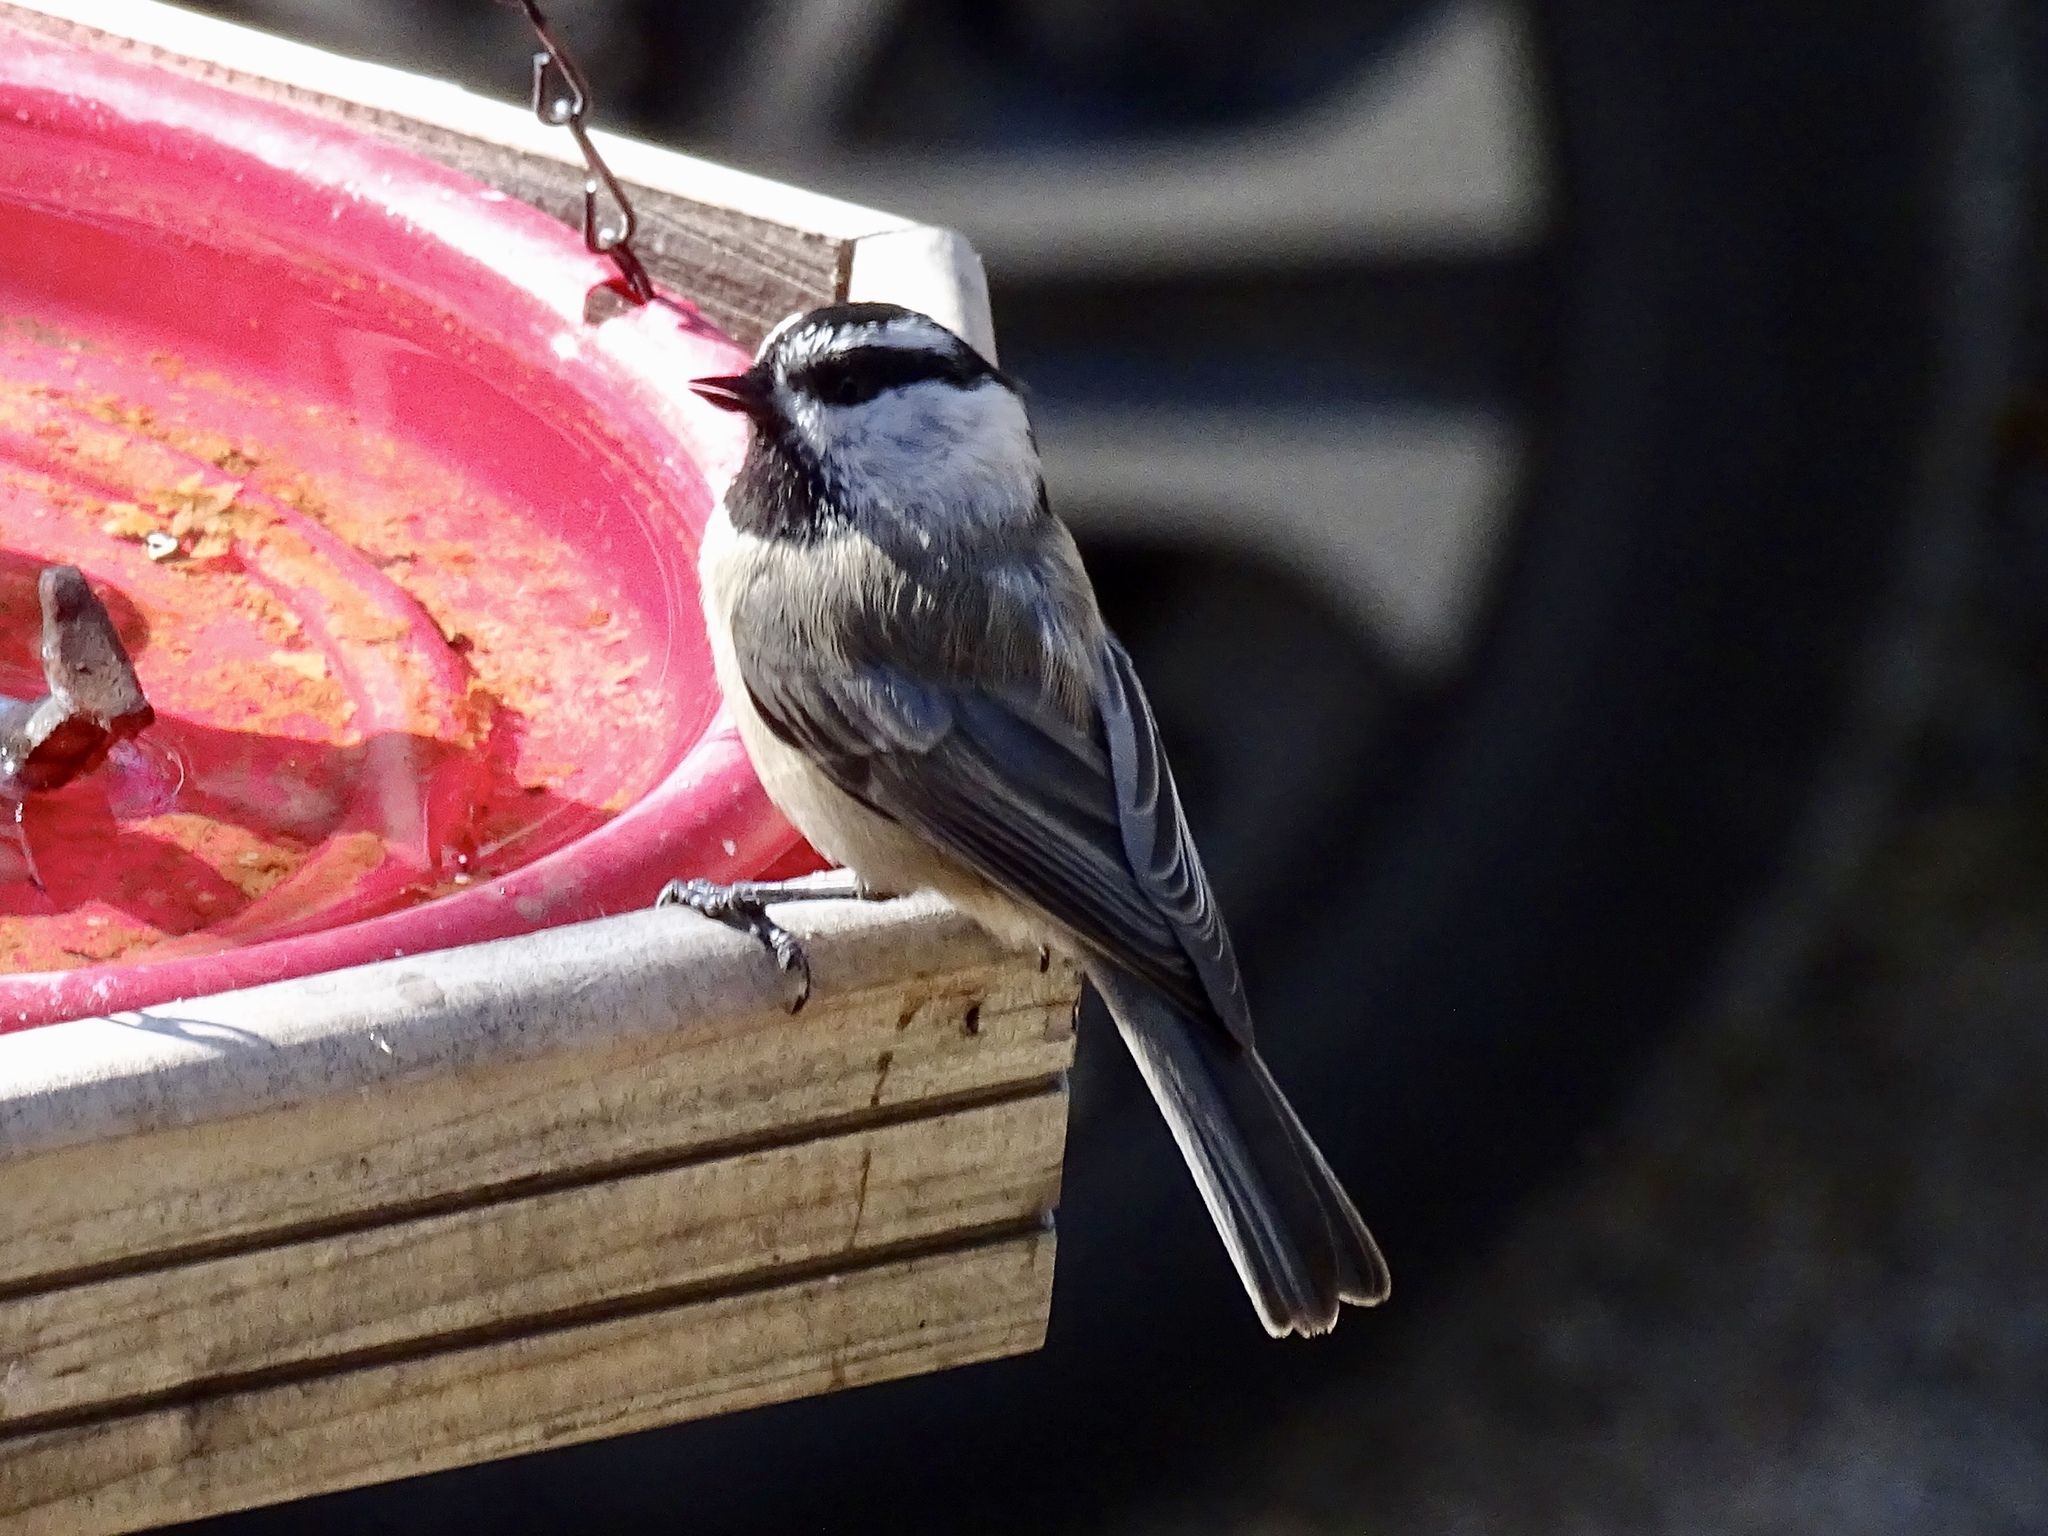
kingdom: Animalia
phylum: Chordata
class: Aves
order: Passeriformes
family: Paridae
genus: Poecile
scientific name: Poecile gambeli
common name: Mountain chickadee
